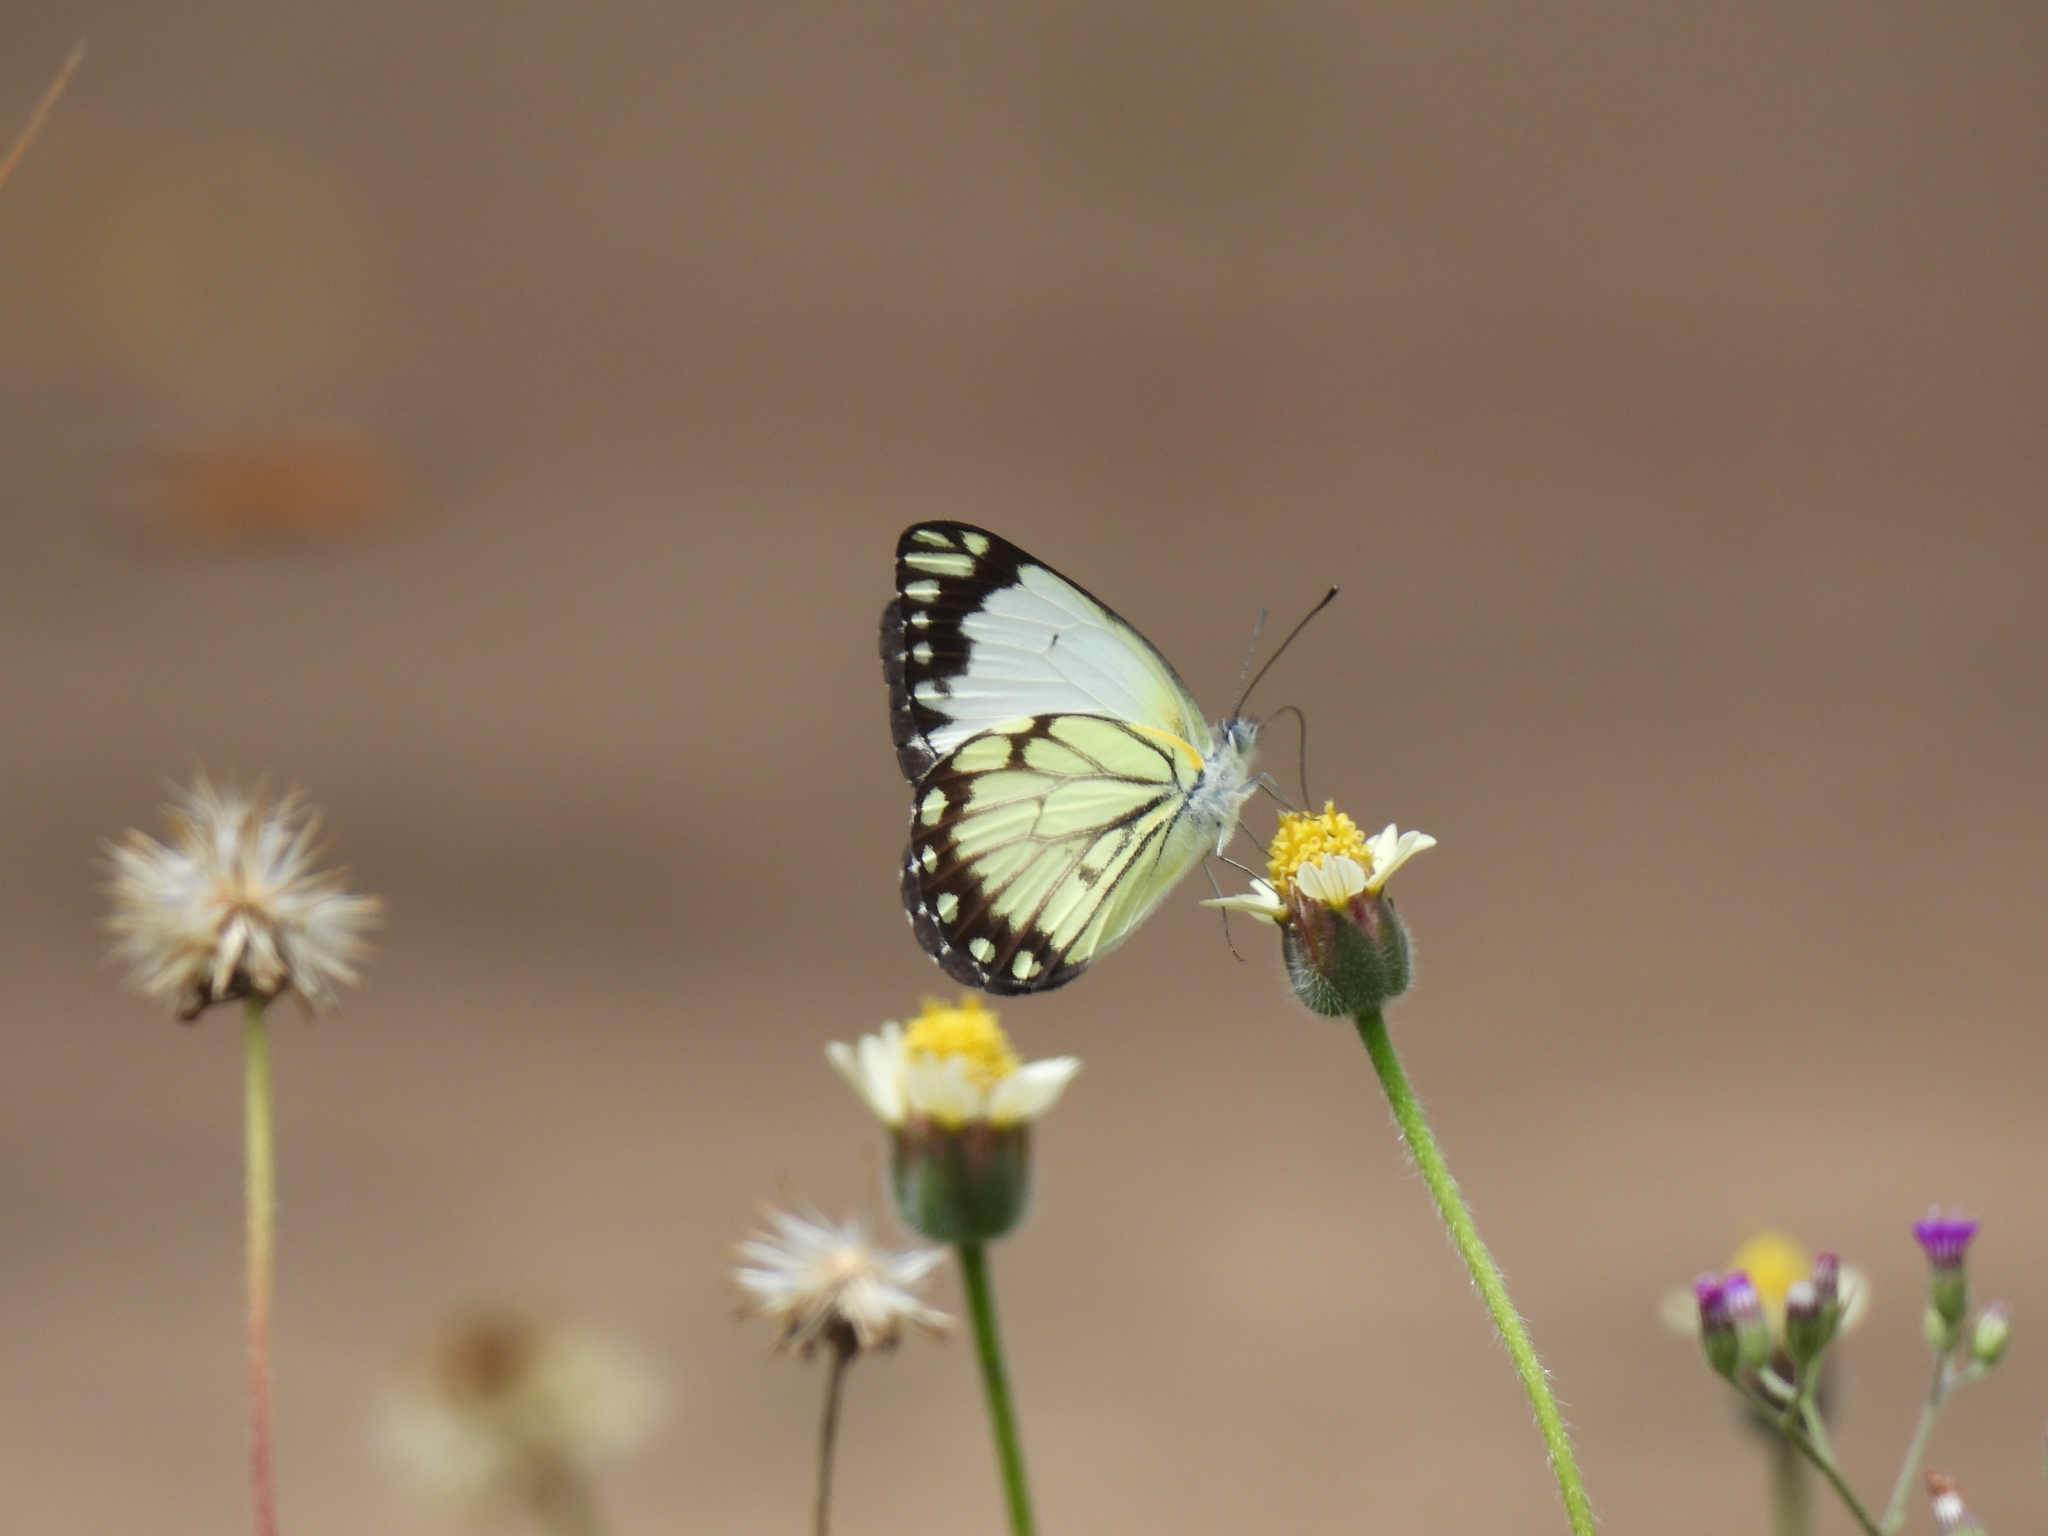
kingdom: Animalia
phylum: Arthropoda
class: Insecta
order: Lepidoptera
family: Pieridae
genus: Belenois
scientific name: Belenois creona
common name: African caper white
